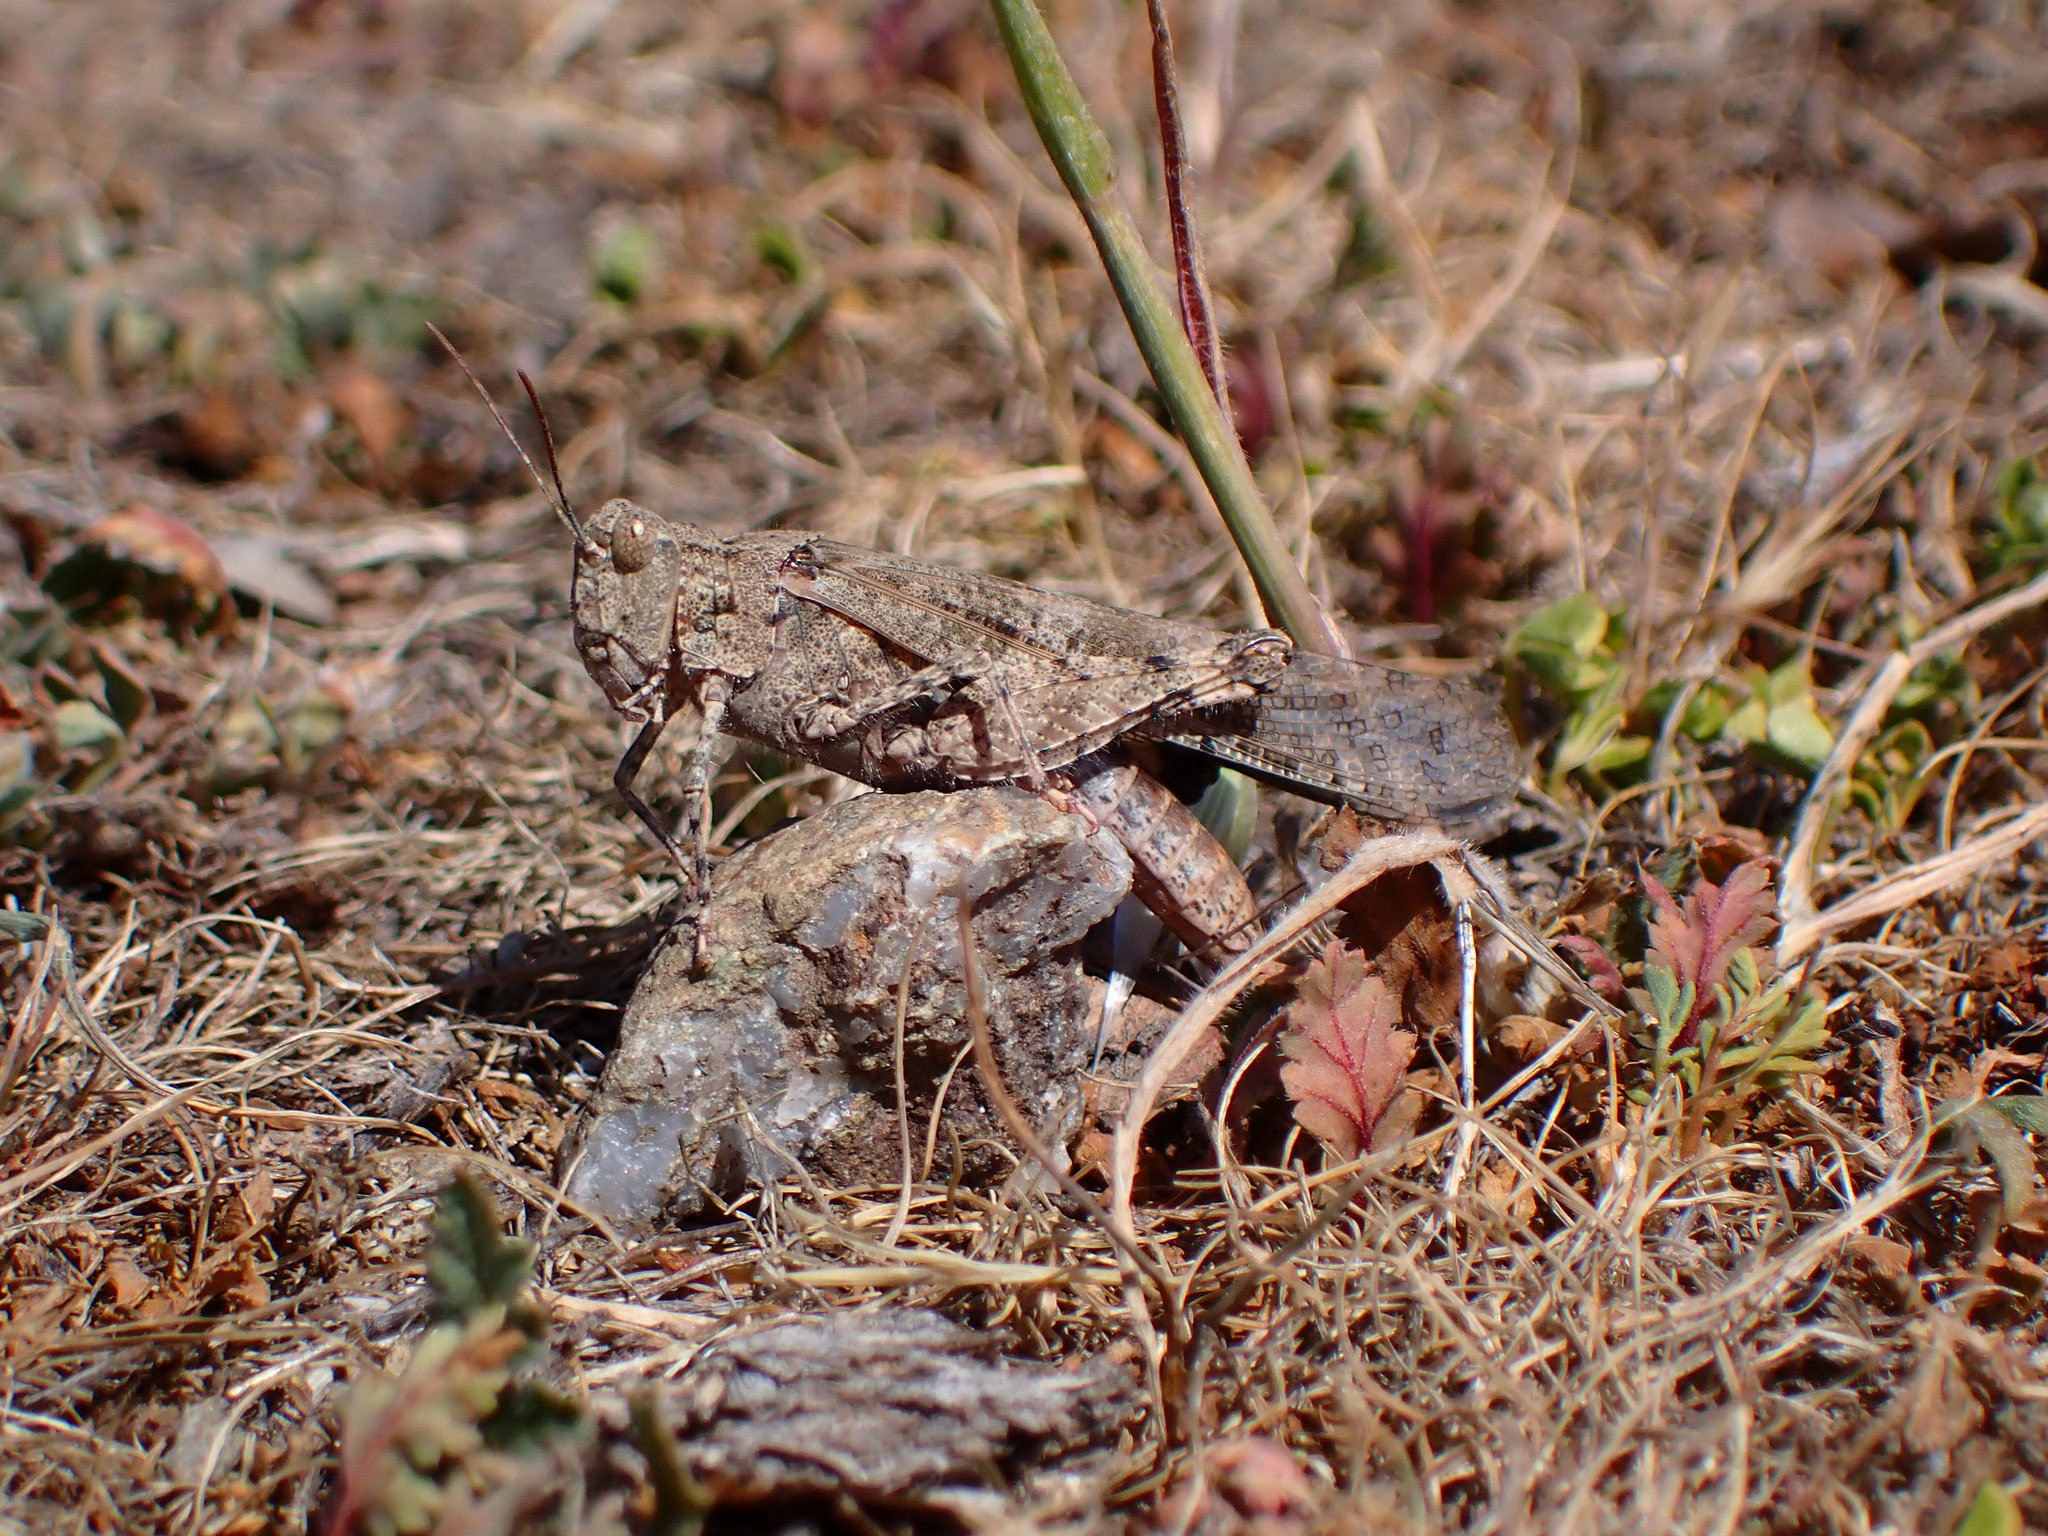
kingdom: Animalia
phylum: Arthropoda
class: Insecta
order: Orthoptera
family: Acrididae
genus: Trimerotropis
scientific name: Trimerotropis pallidipennis
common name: Pallid-winged grasshopper
